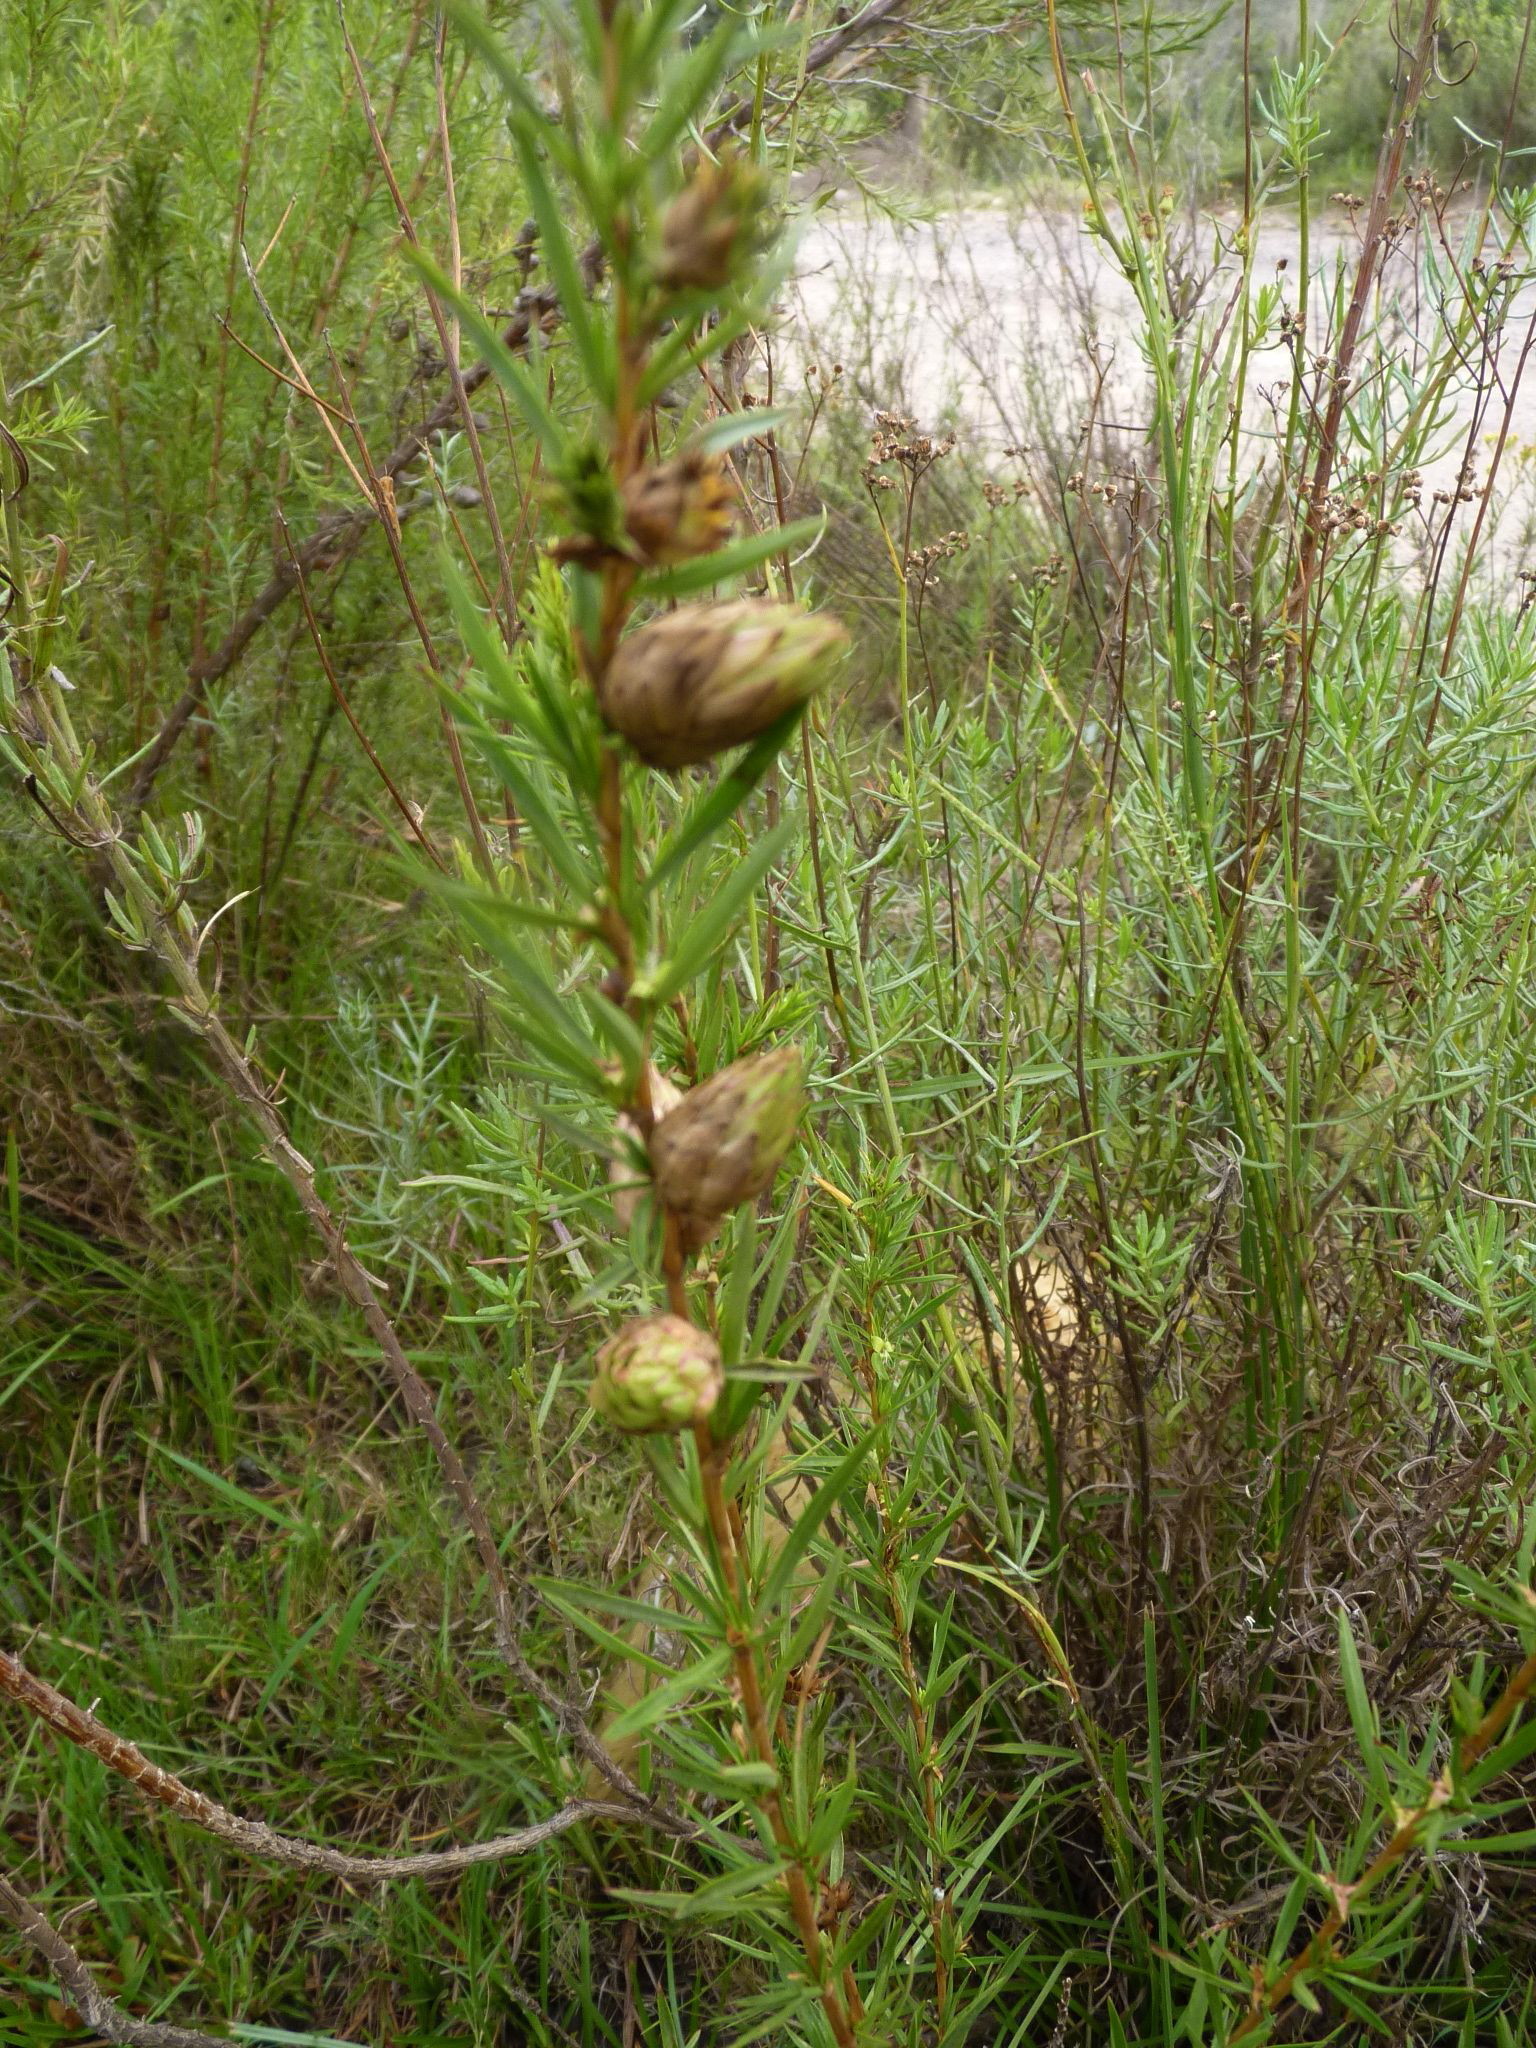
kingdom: Plantae
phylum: Tracheophyta
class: Magnoliopsida
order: Rosales
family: Rosaceae
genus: Cliffortia
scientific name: Cliffortia strobilifera
